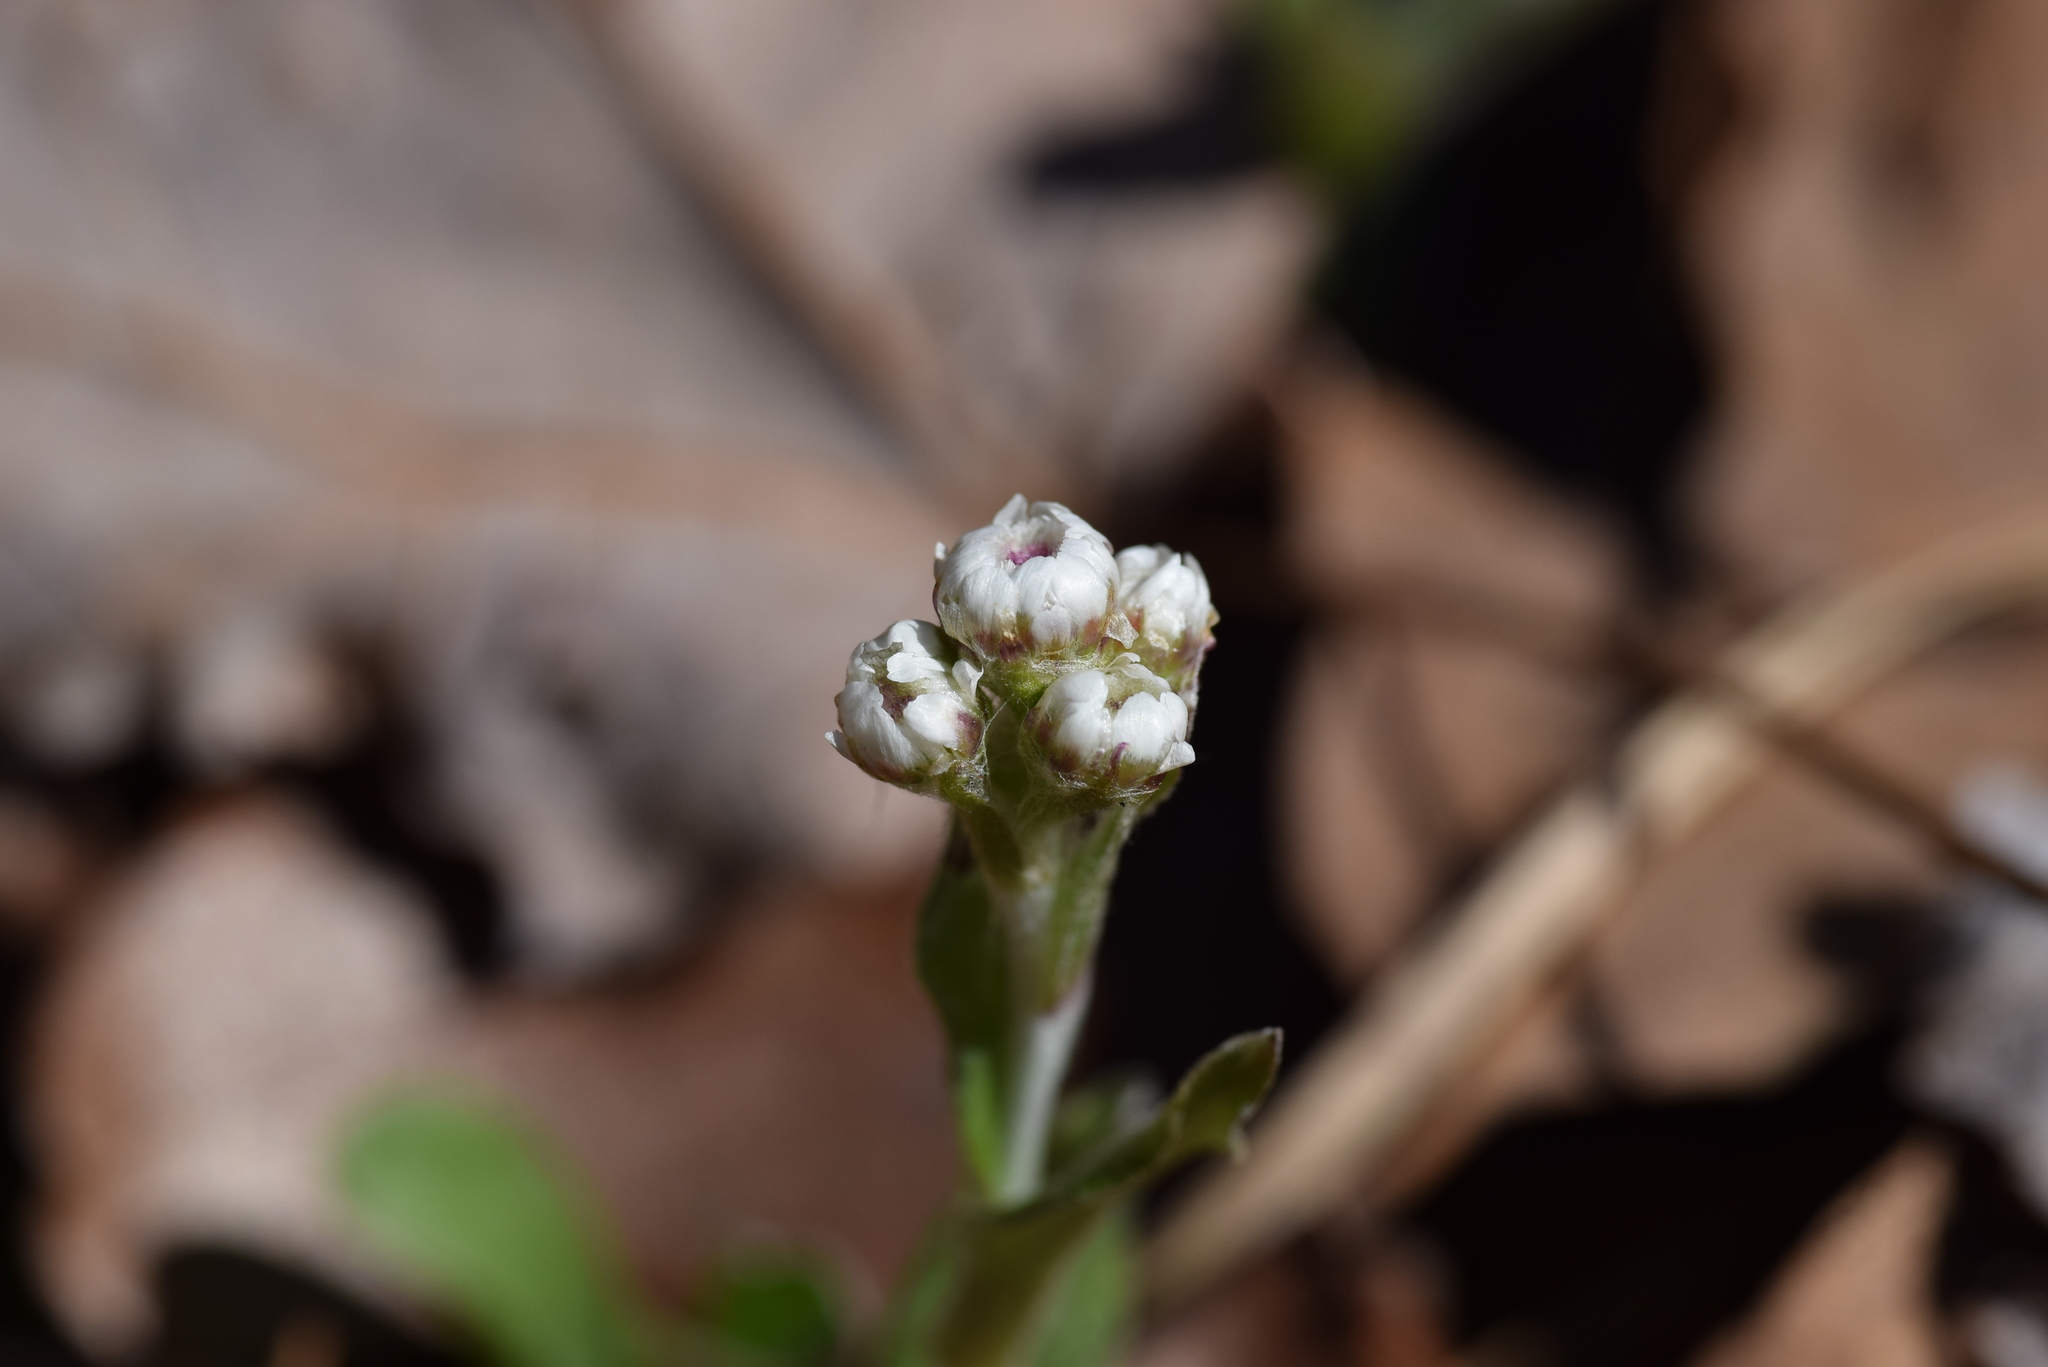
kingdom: Plantae
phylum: Tracheophyta
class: Magnoliopsida
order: Asterales
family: Asteraceae
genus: Antennaria
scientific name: Antennaria parlinii
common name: Parlin's pussytoes
